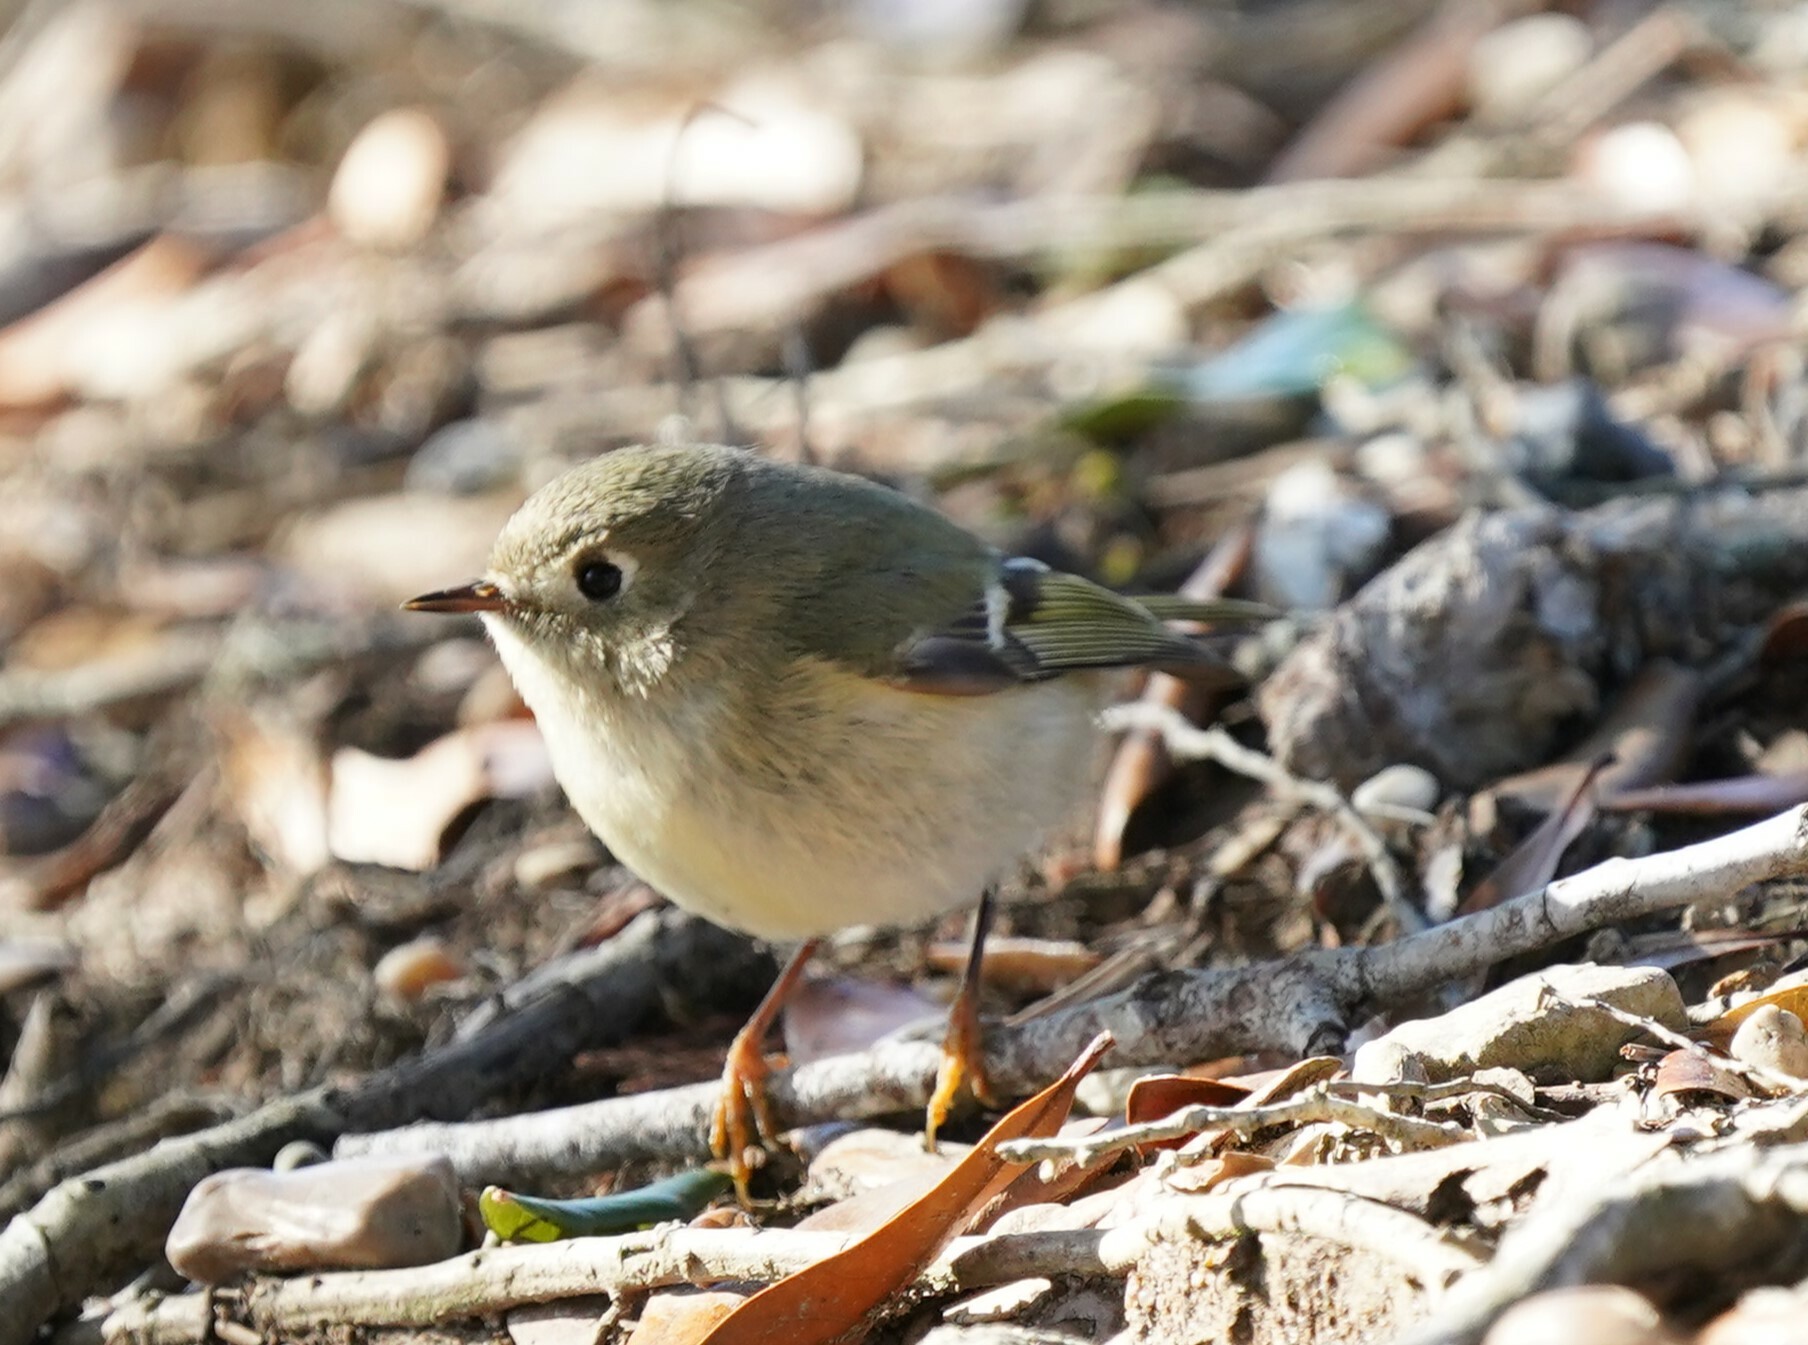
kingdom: Animalia
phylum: Chordata
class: Aves
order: Passeriformes
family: Regulidae
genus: Regulus
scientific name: Regulus calendula
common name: Ruby-crowned kinglet
